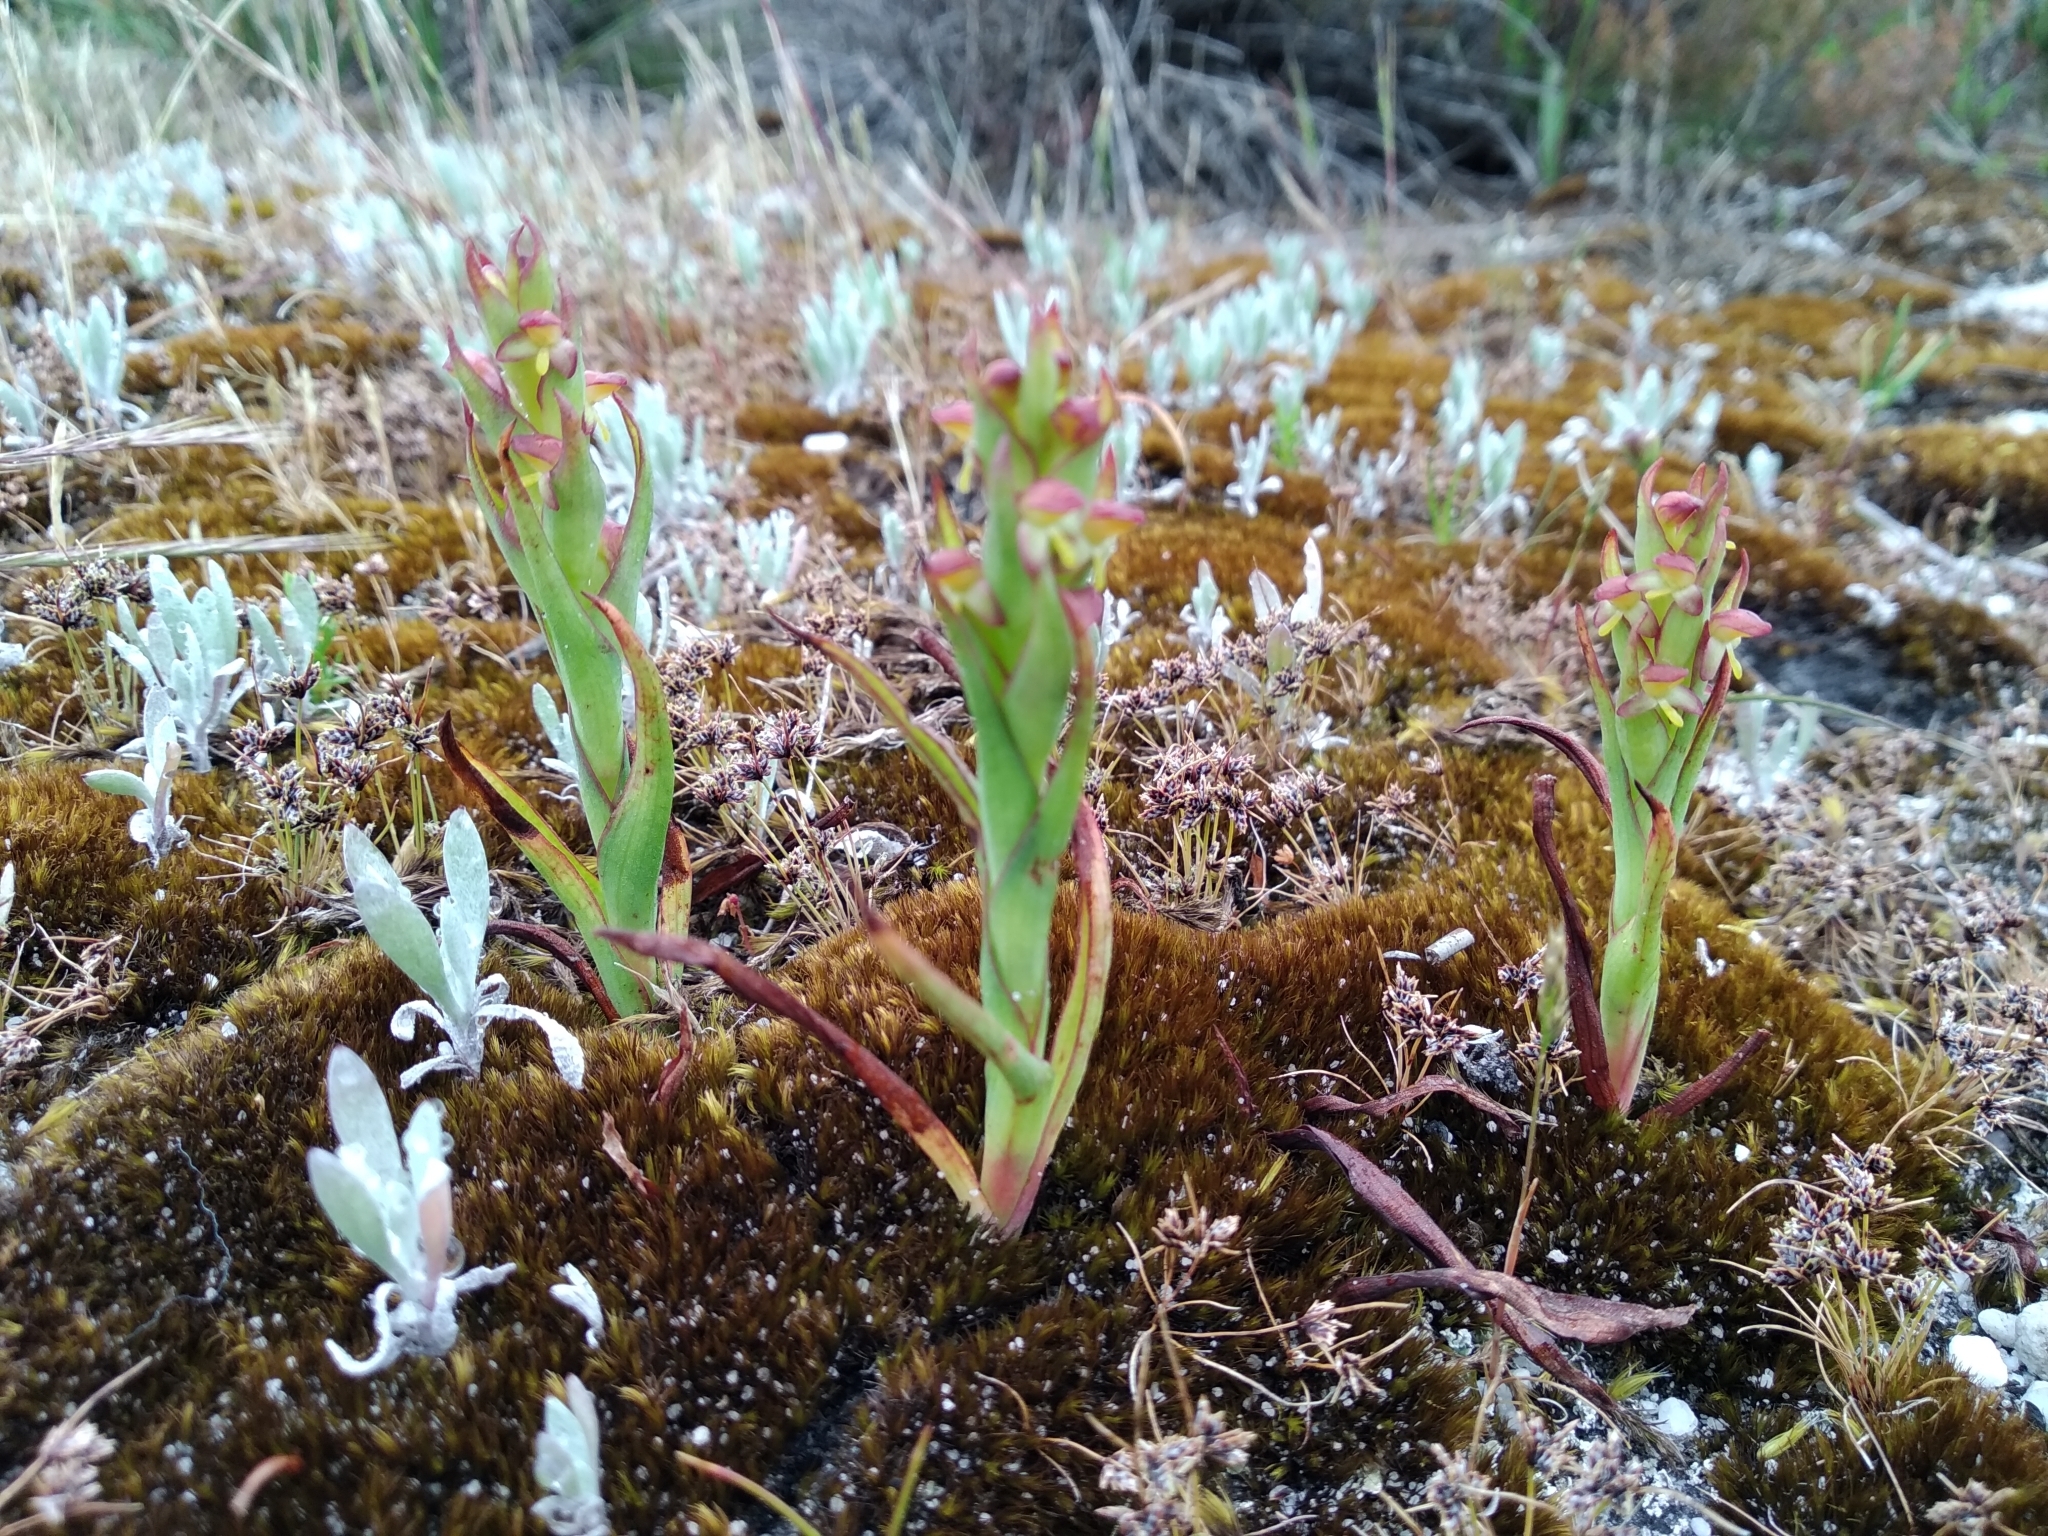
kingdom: Plantae
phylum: Tracheophyta
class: Liliopsida
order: Asparagales
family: Orchidaceae
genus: Disa
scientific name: Disa bracteata
